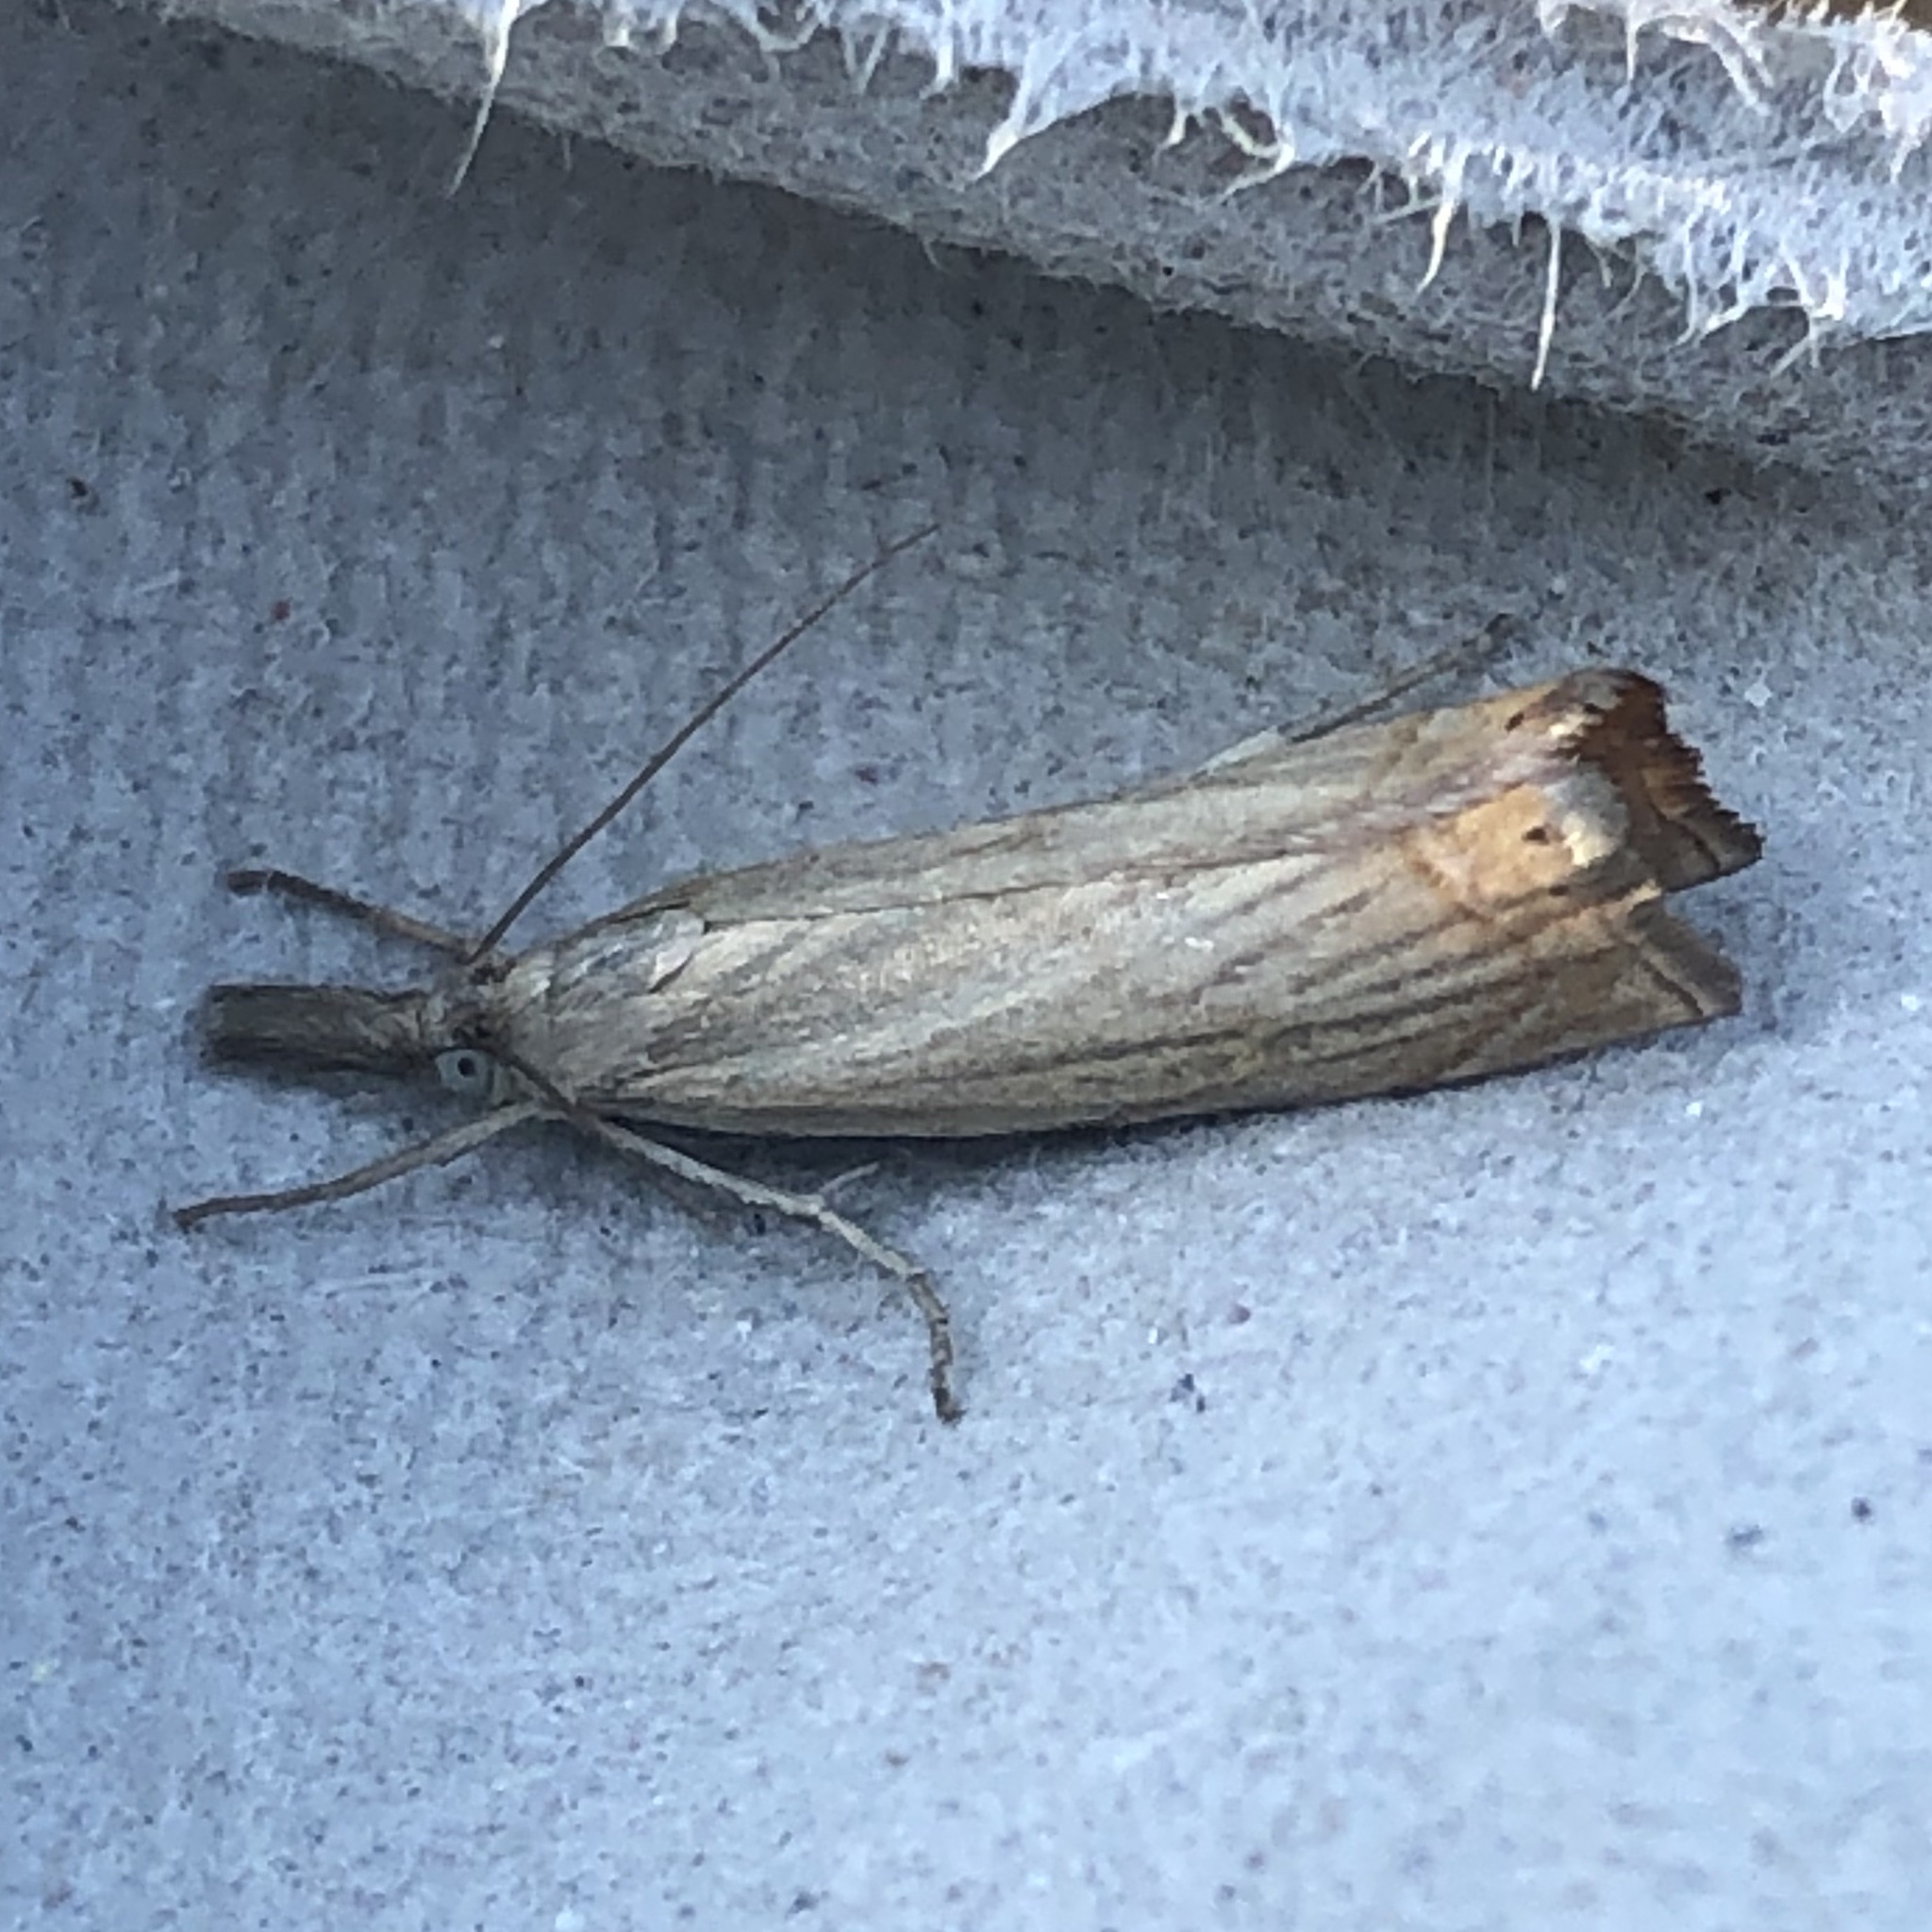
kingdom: Animalia
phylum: Arthropoda
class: Insecta
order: Lepidoptera
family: Crambidae
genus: Chrysoteuchia
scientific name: Chrysoteuchia culmella
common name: Garden grass-veneer
